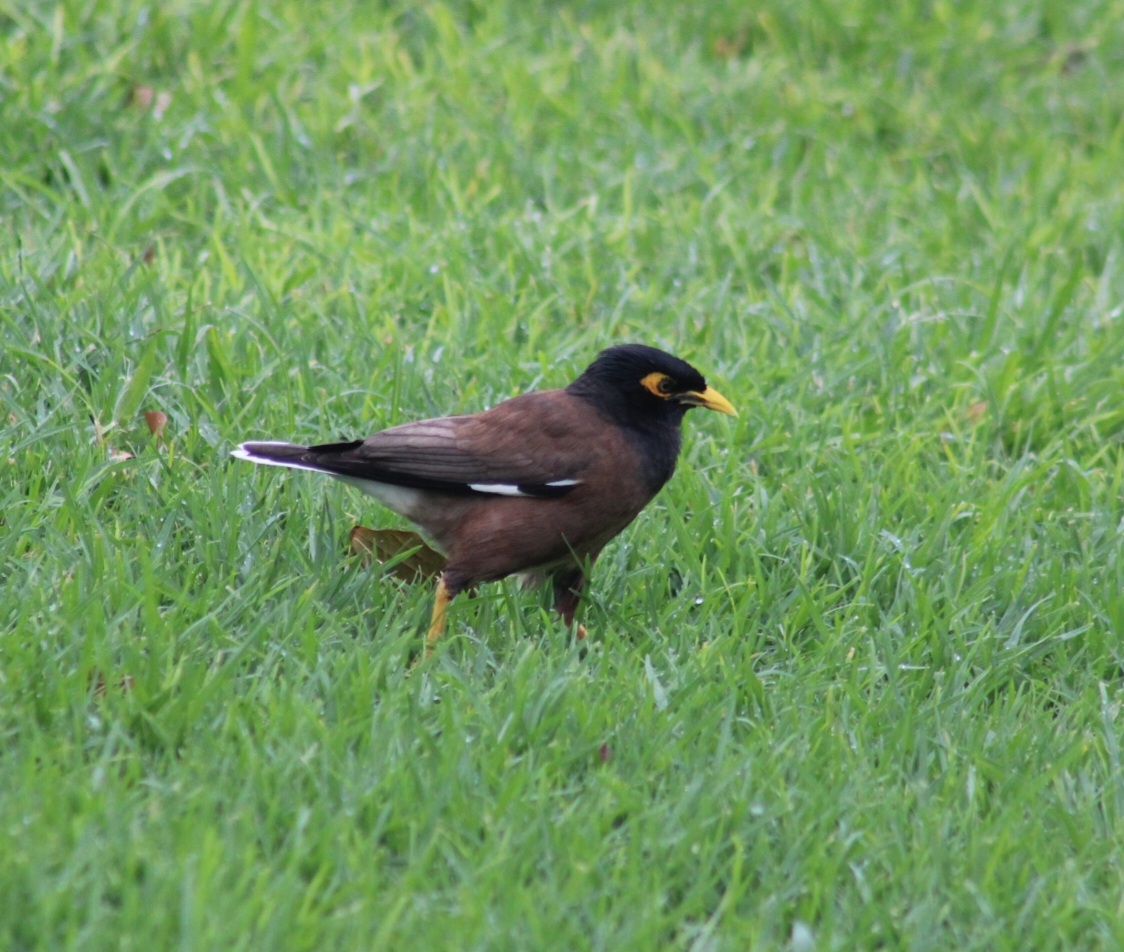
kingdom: Animalia
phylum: Chordata
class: Aves
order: Passeriformes
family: Sturnidae
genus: Acridotheres
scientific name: Acridotheres tristis
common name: Common myna
